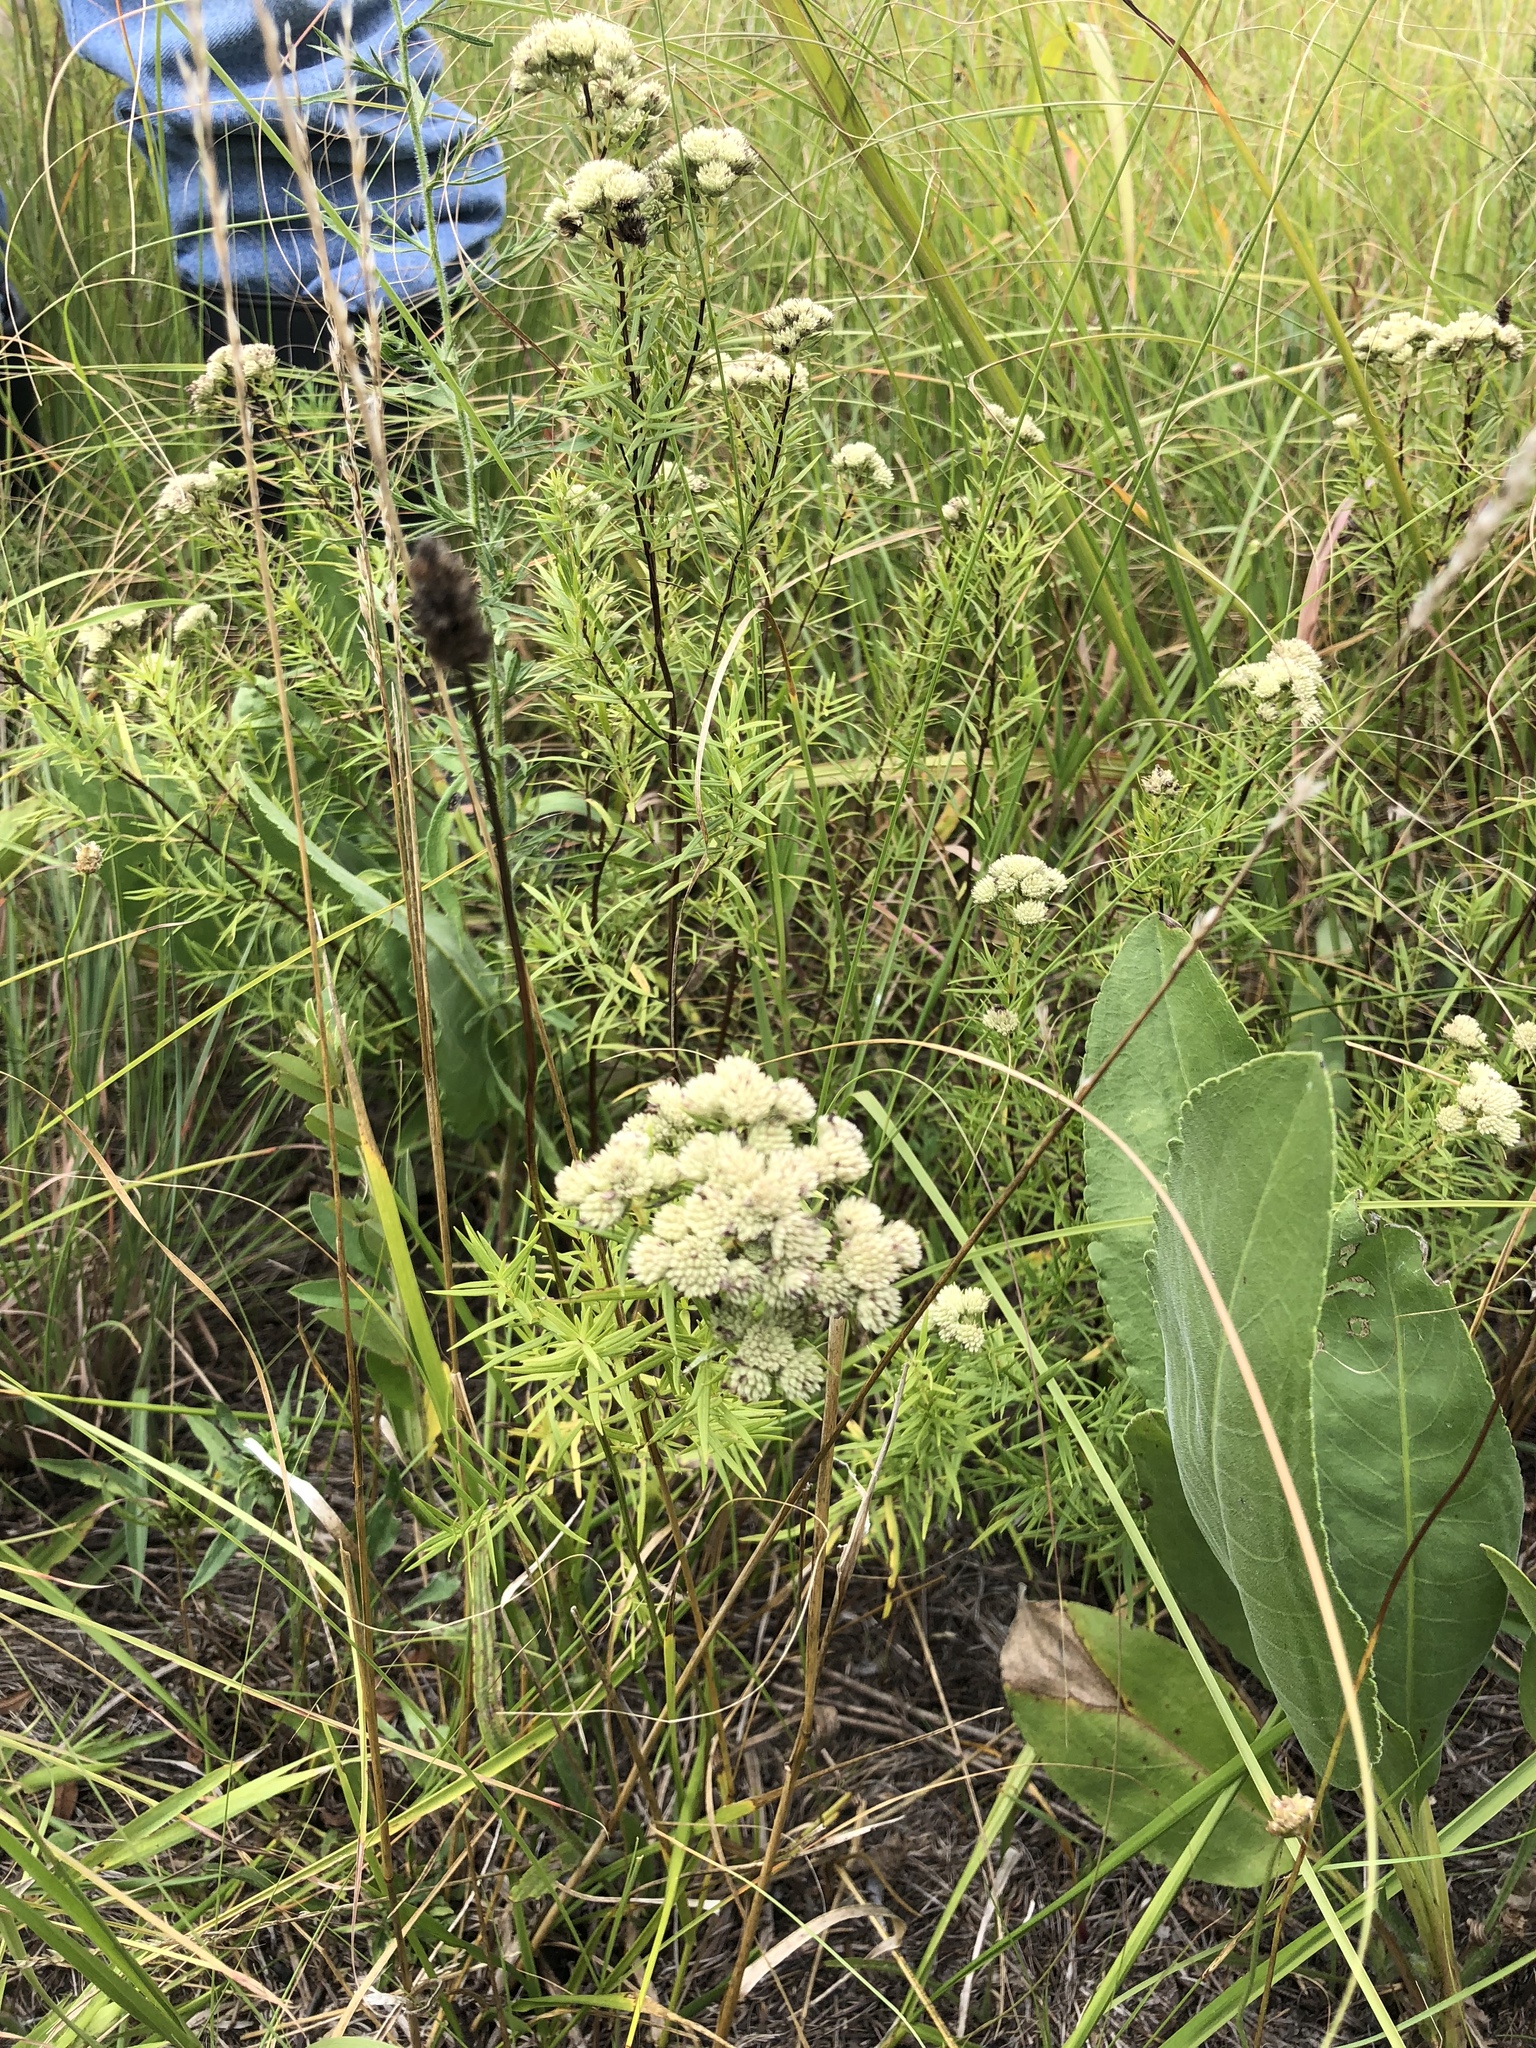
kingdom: Plantae
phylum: Tracheophyta
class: Magnoliopsida
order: Lamiales
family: Lamiaceae
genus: Pycnanthemum
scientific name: Pycnanthemum tenuifolium
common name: Narrow-leaf mountain-mint
